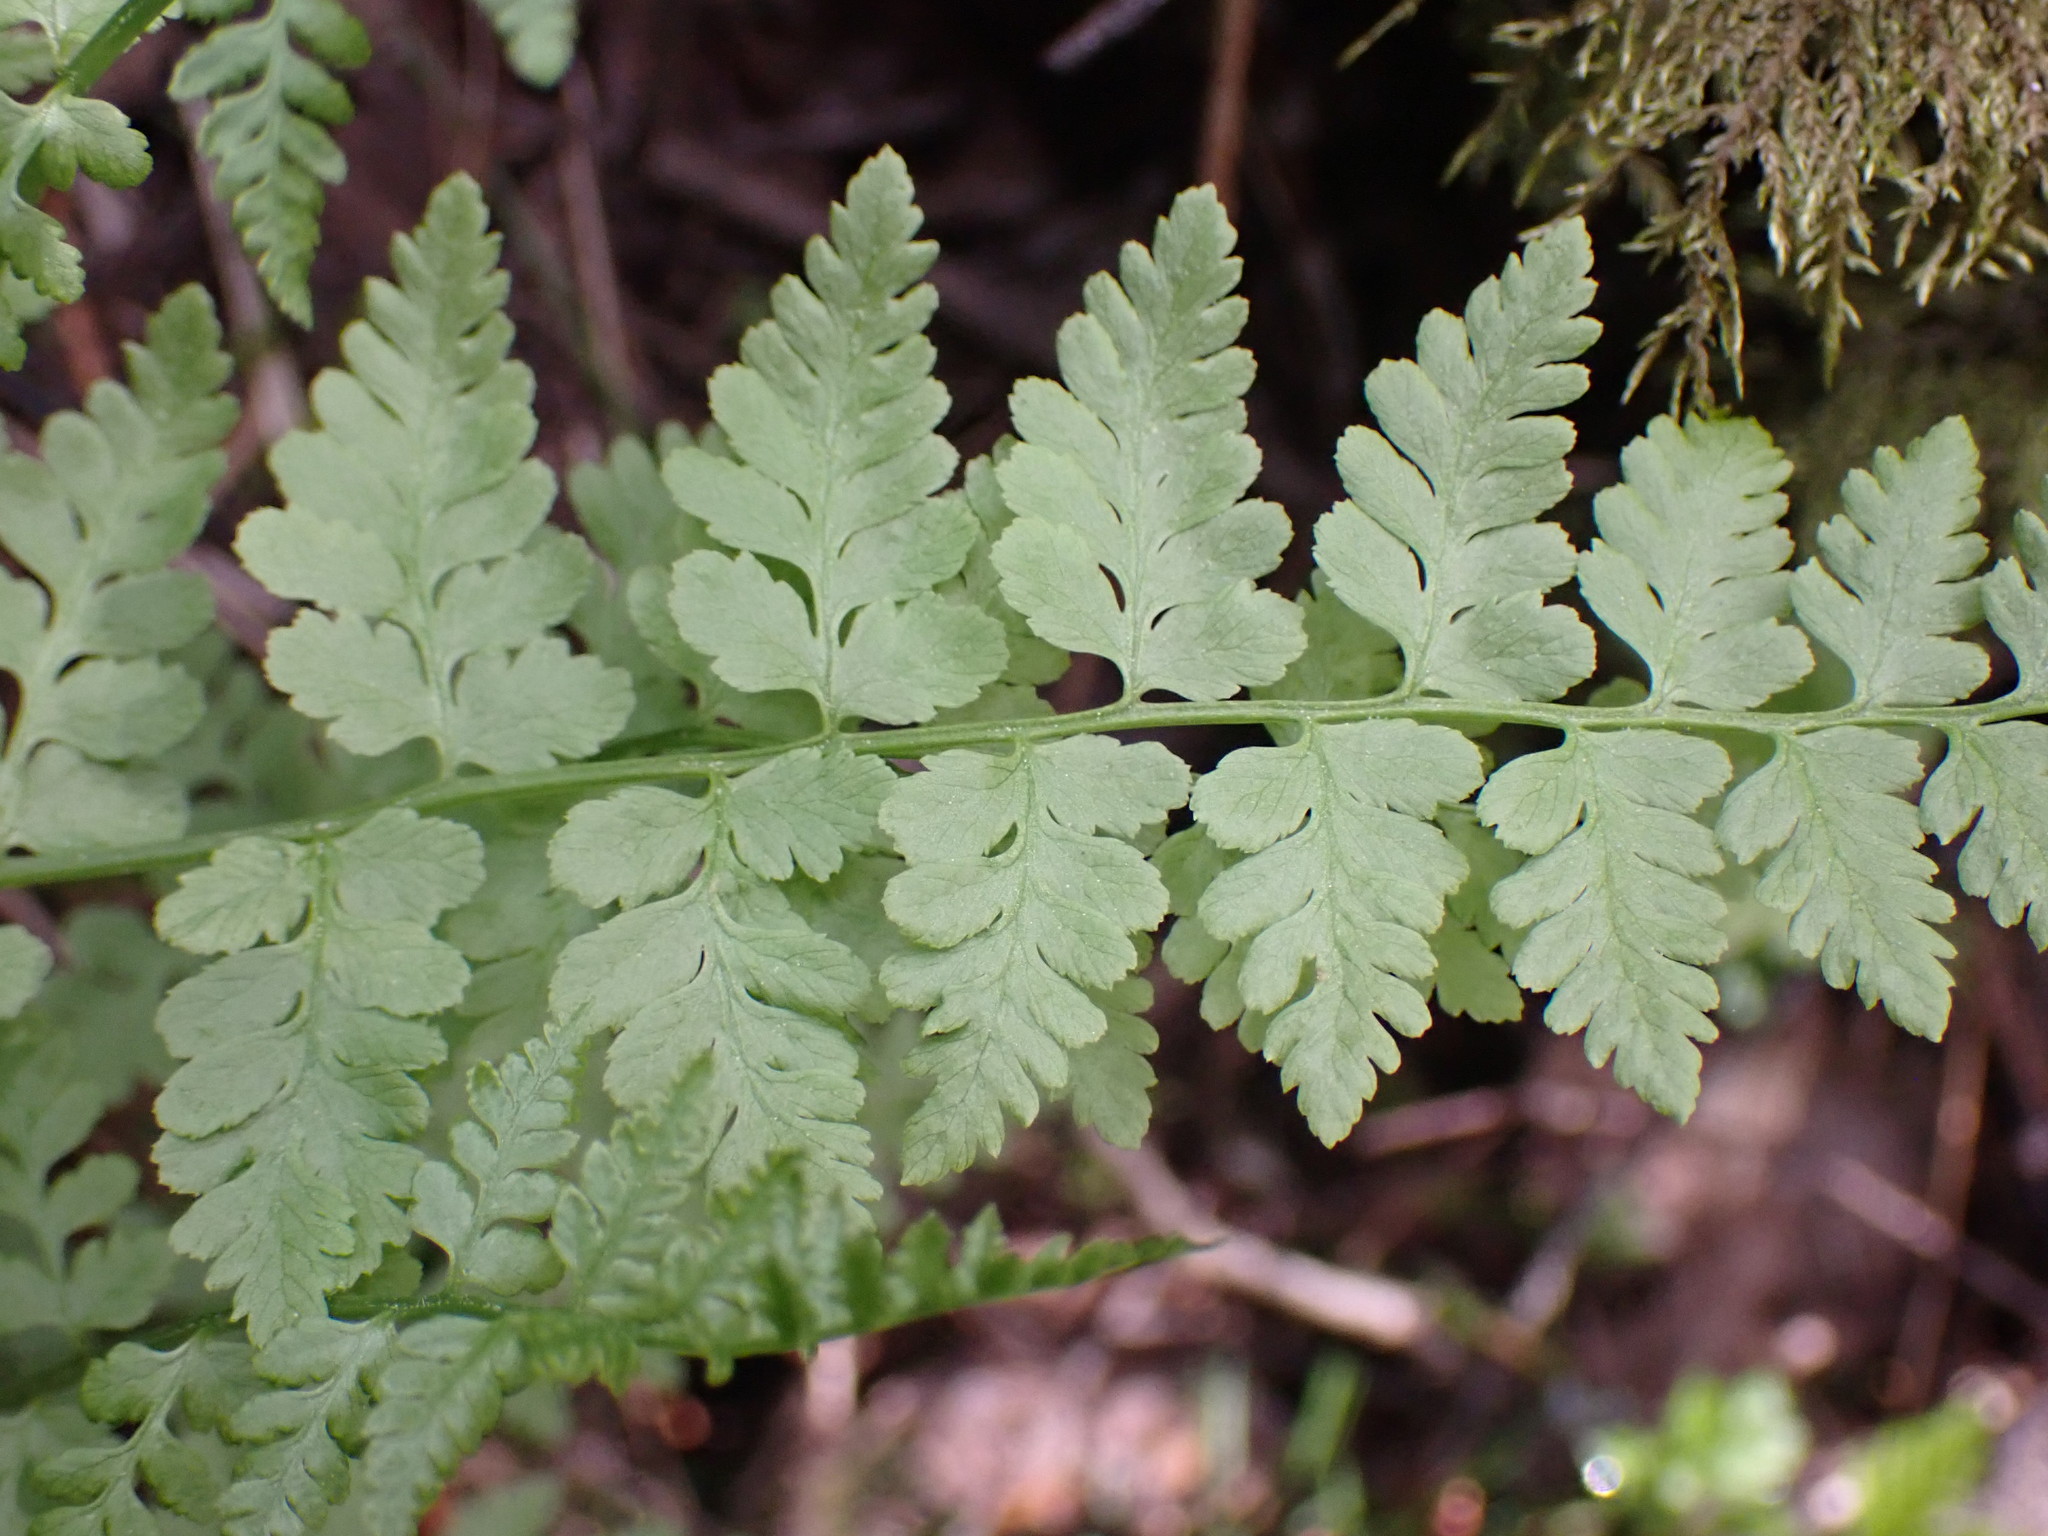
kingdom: Plantae
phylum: Tracheophyta
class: Polypodiopsida
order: Polypodiales
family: Cystopteridaceae
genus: Cystopteris
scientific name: Cystopteris fragilis
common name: Brittle bladder fern
